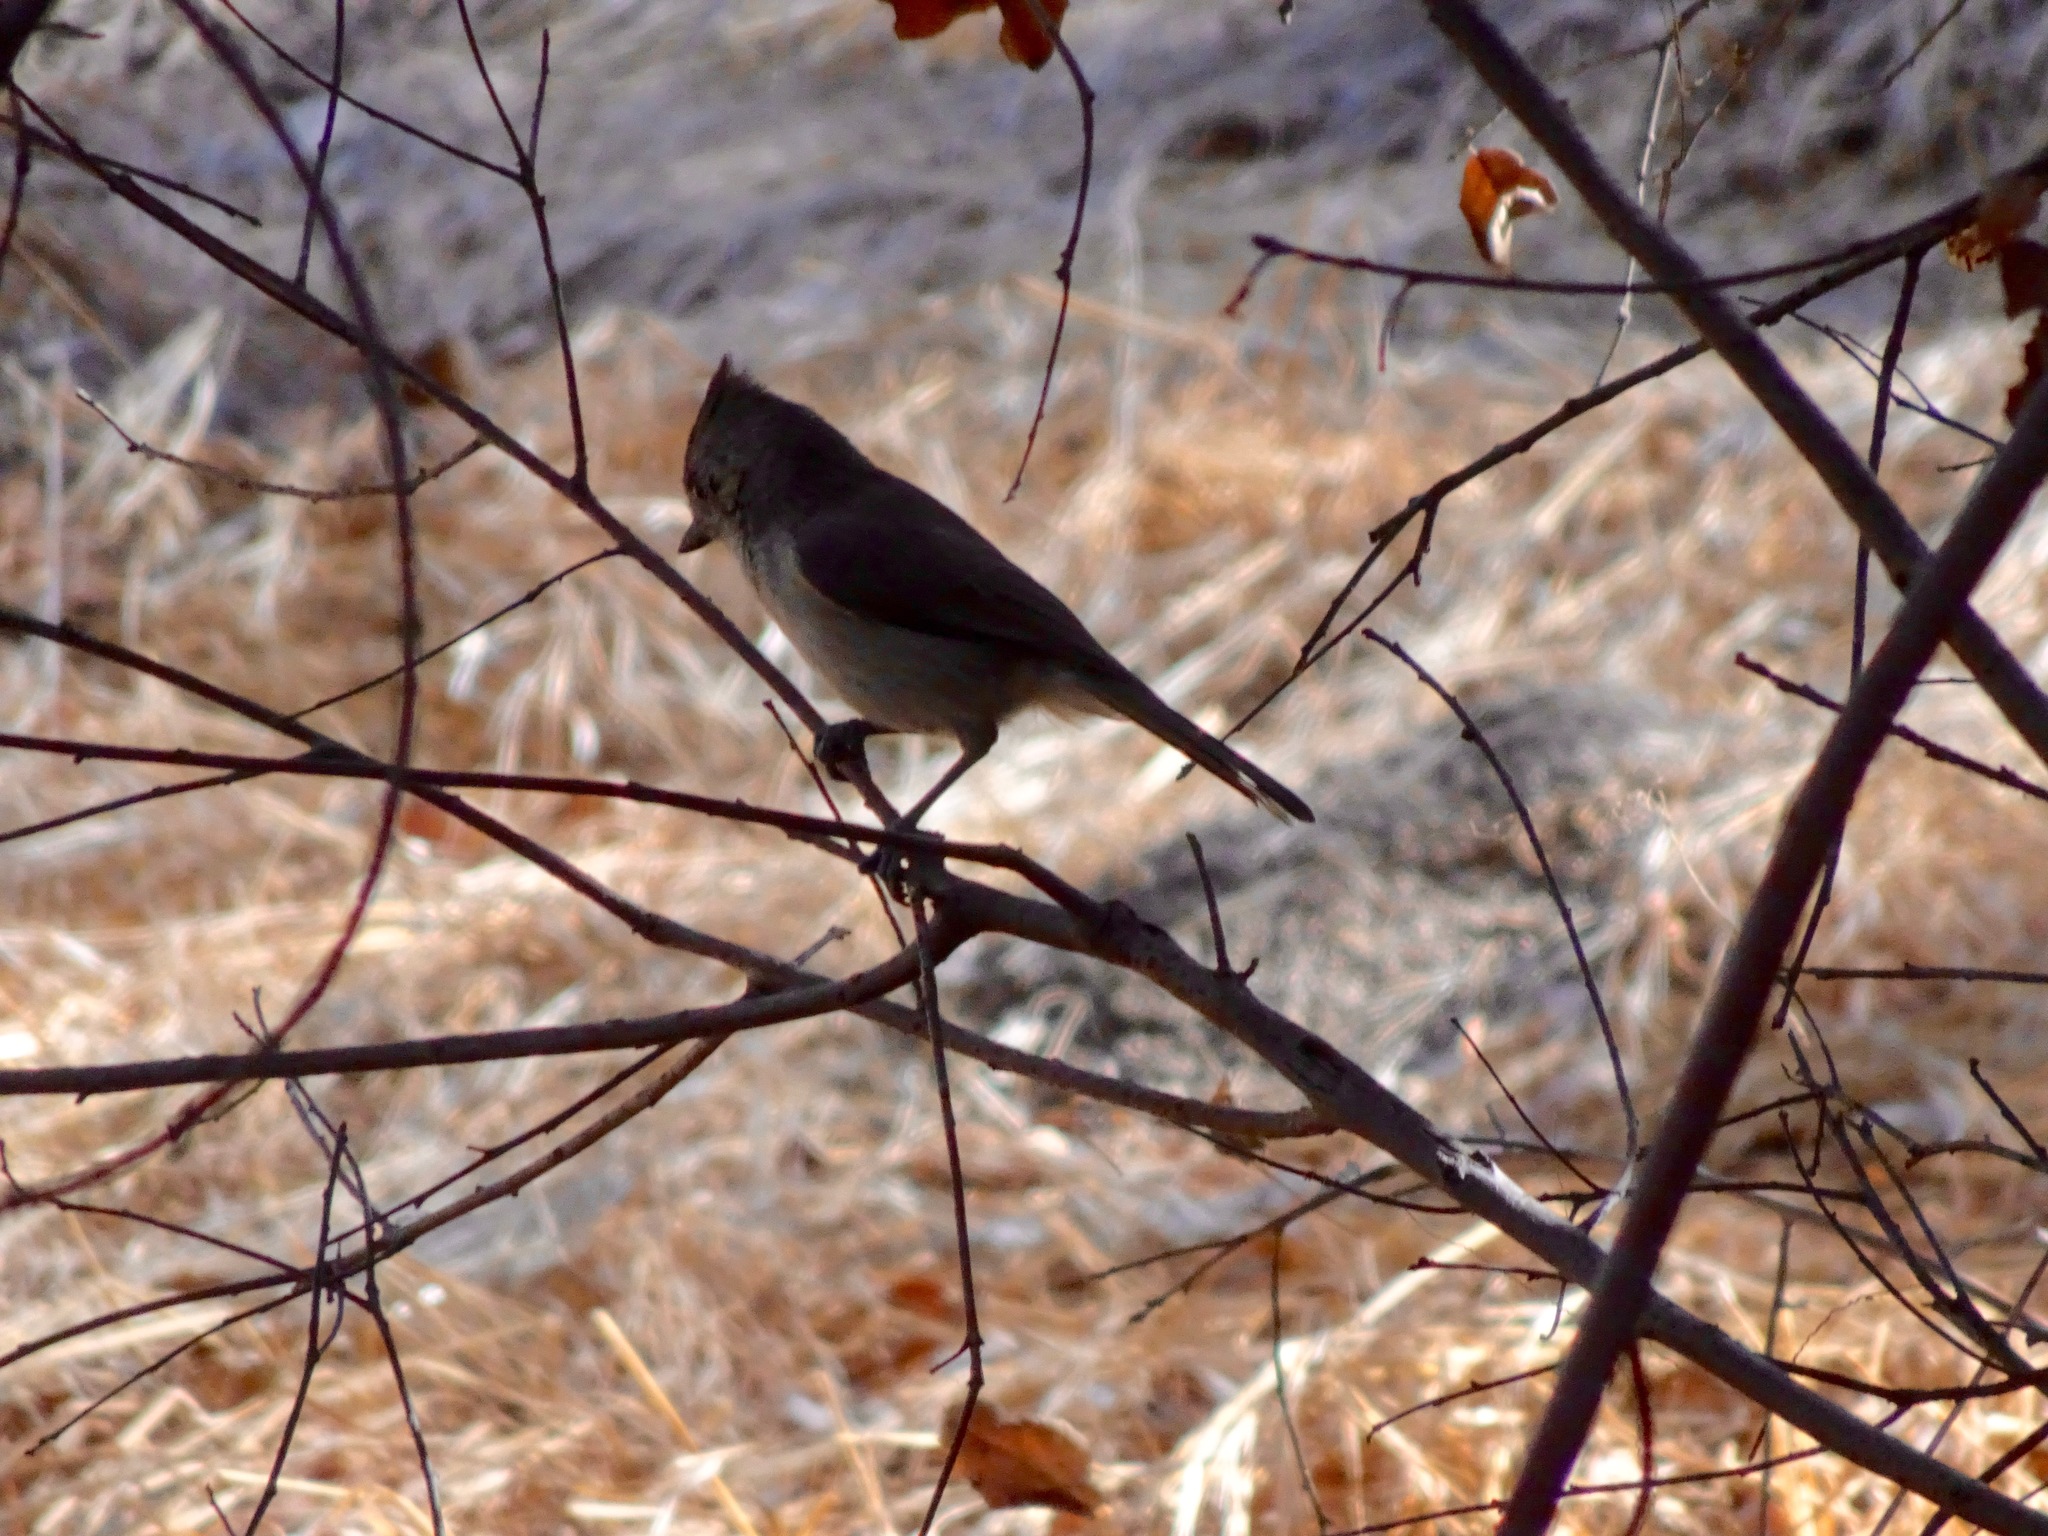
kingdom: Animalia
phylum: Chordata
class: Aves
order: Passeriformes
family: Paridae
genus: Baeolophus
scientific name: Baeolophus inornatus
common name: Oak titmouse
